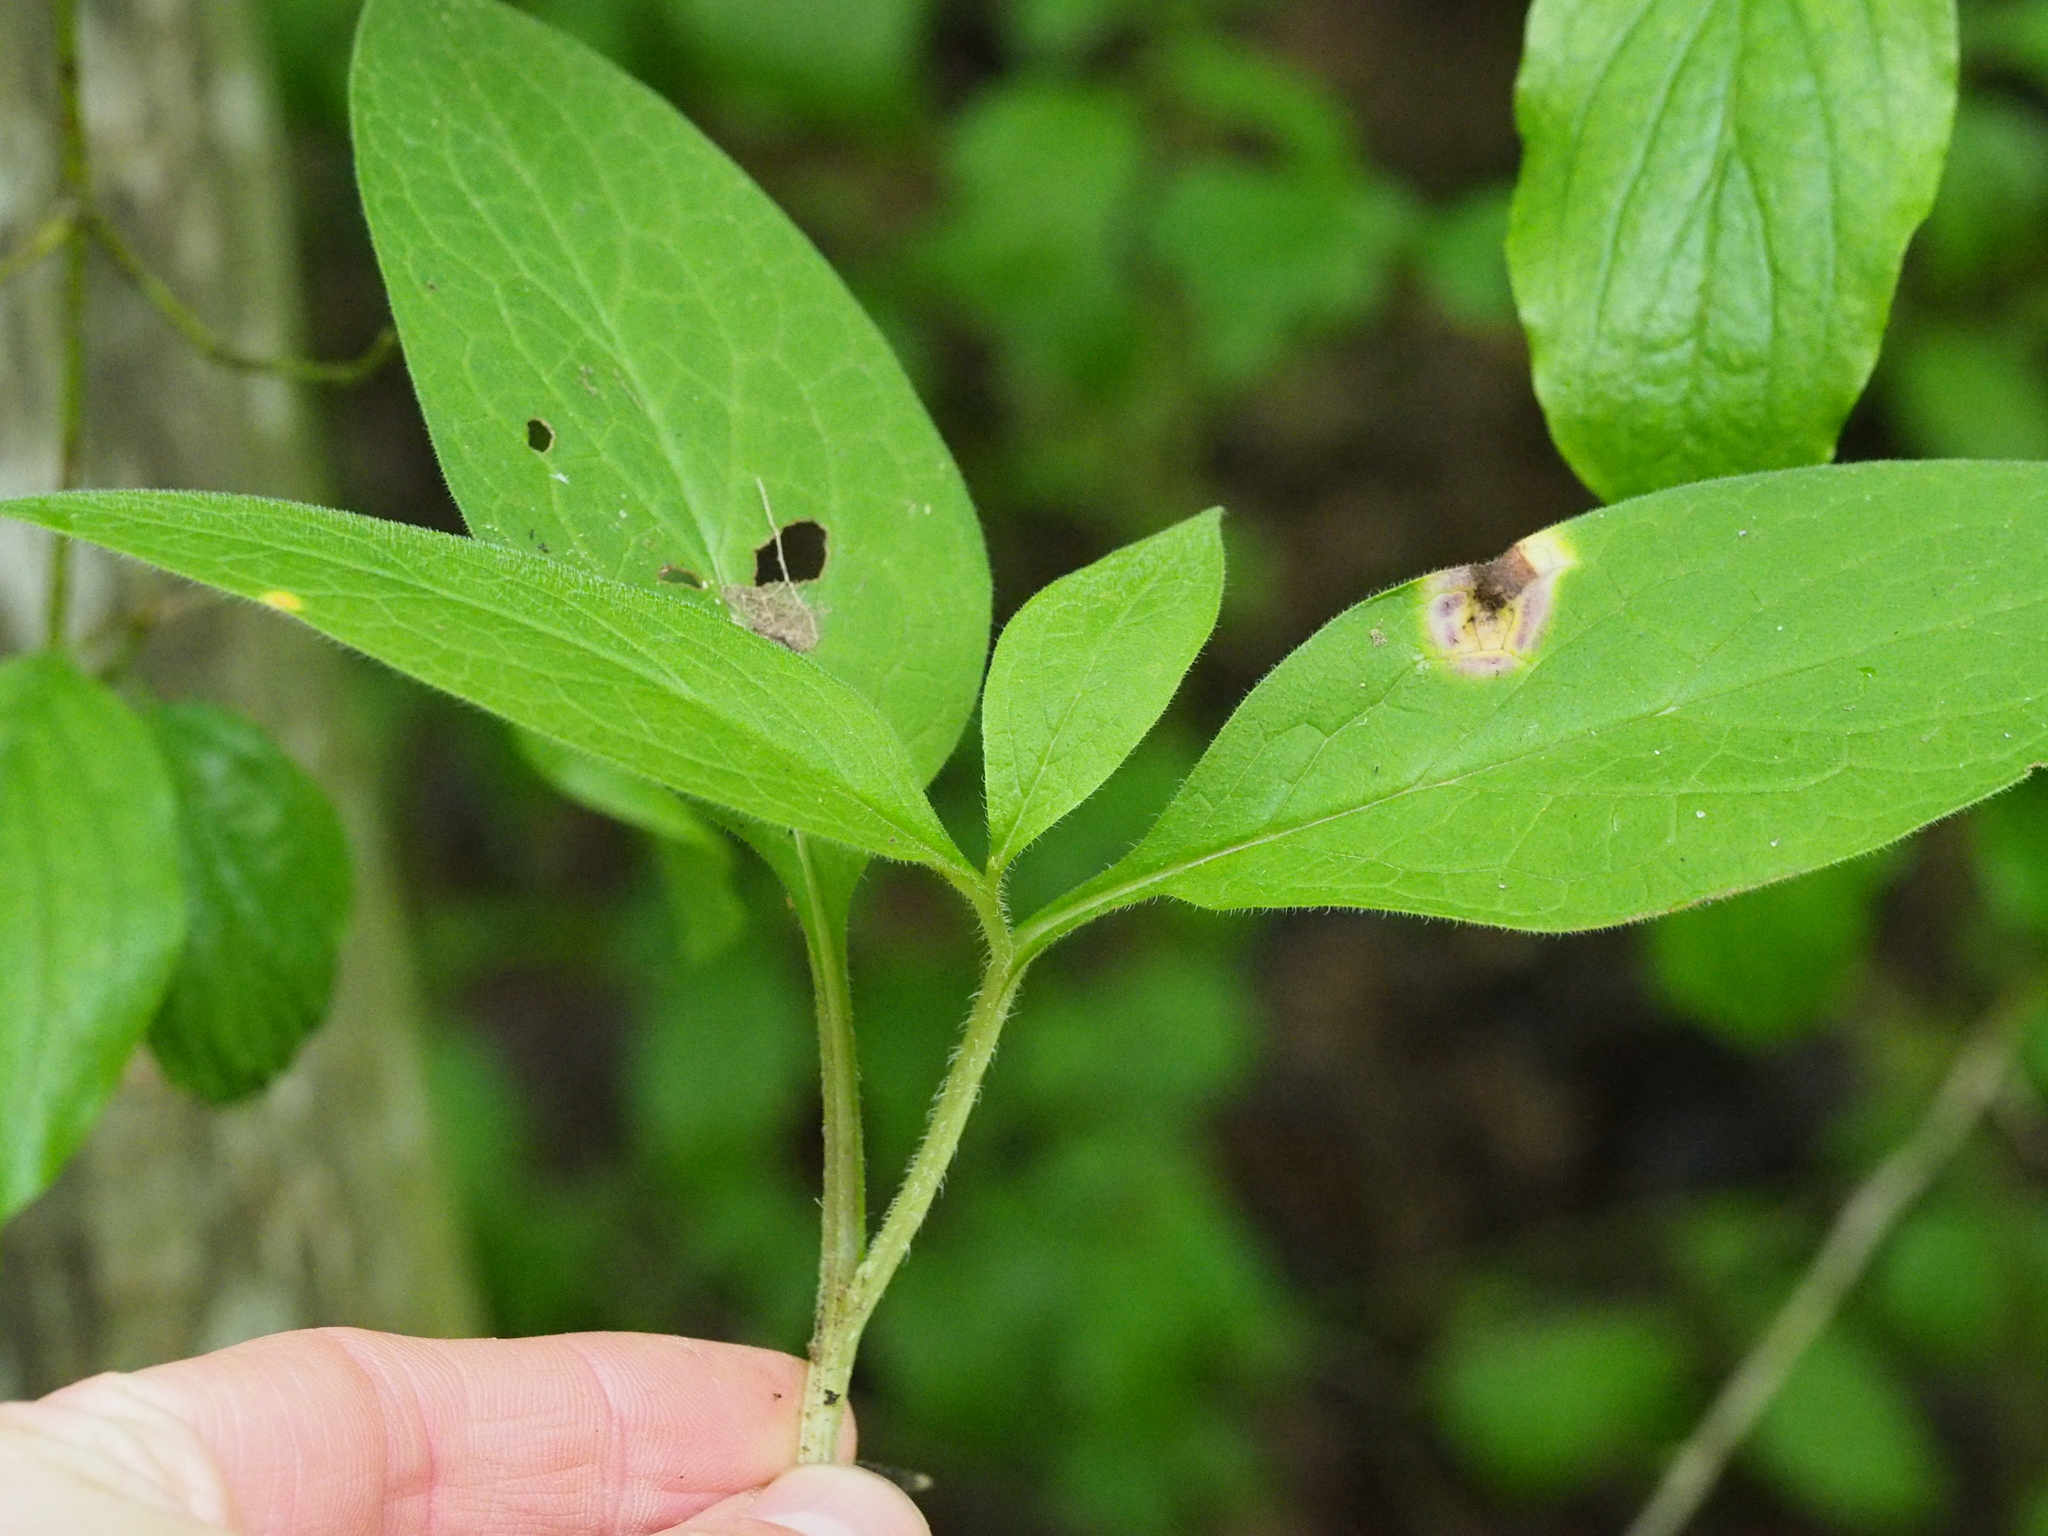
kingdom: Plantae
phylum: Tracheophyta
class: Magnoliopsida
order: Boraginales
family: Boraginaceae
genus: Symphytum
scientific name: Symphytum tuberosum
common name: Tuberous comfrey
